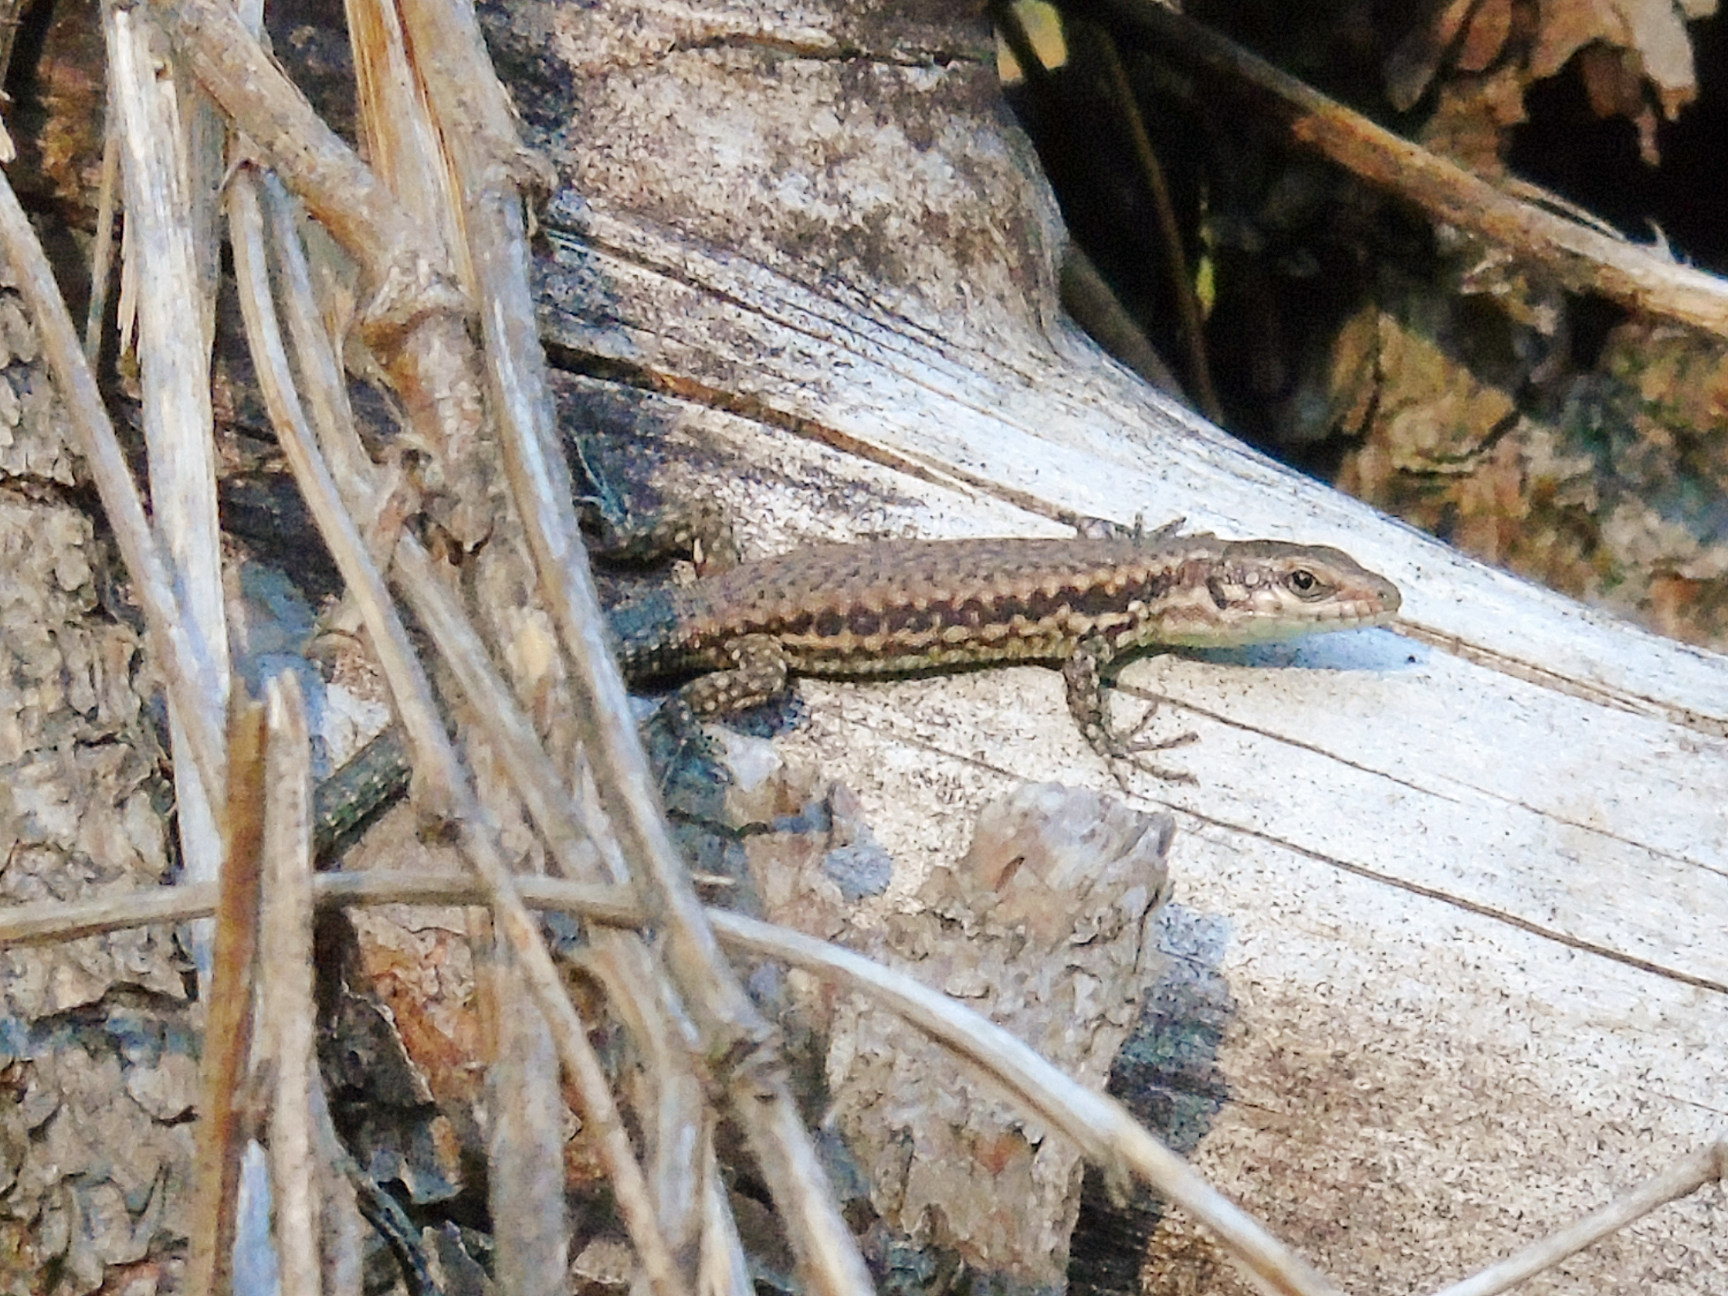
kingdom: Animalia
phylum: Chordata
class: Squamata
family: Lacertidae
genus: Podarcis
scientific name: Podarcis muralis
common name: Common wall lizard
